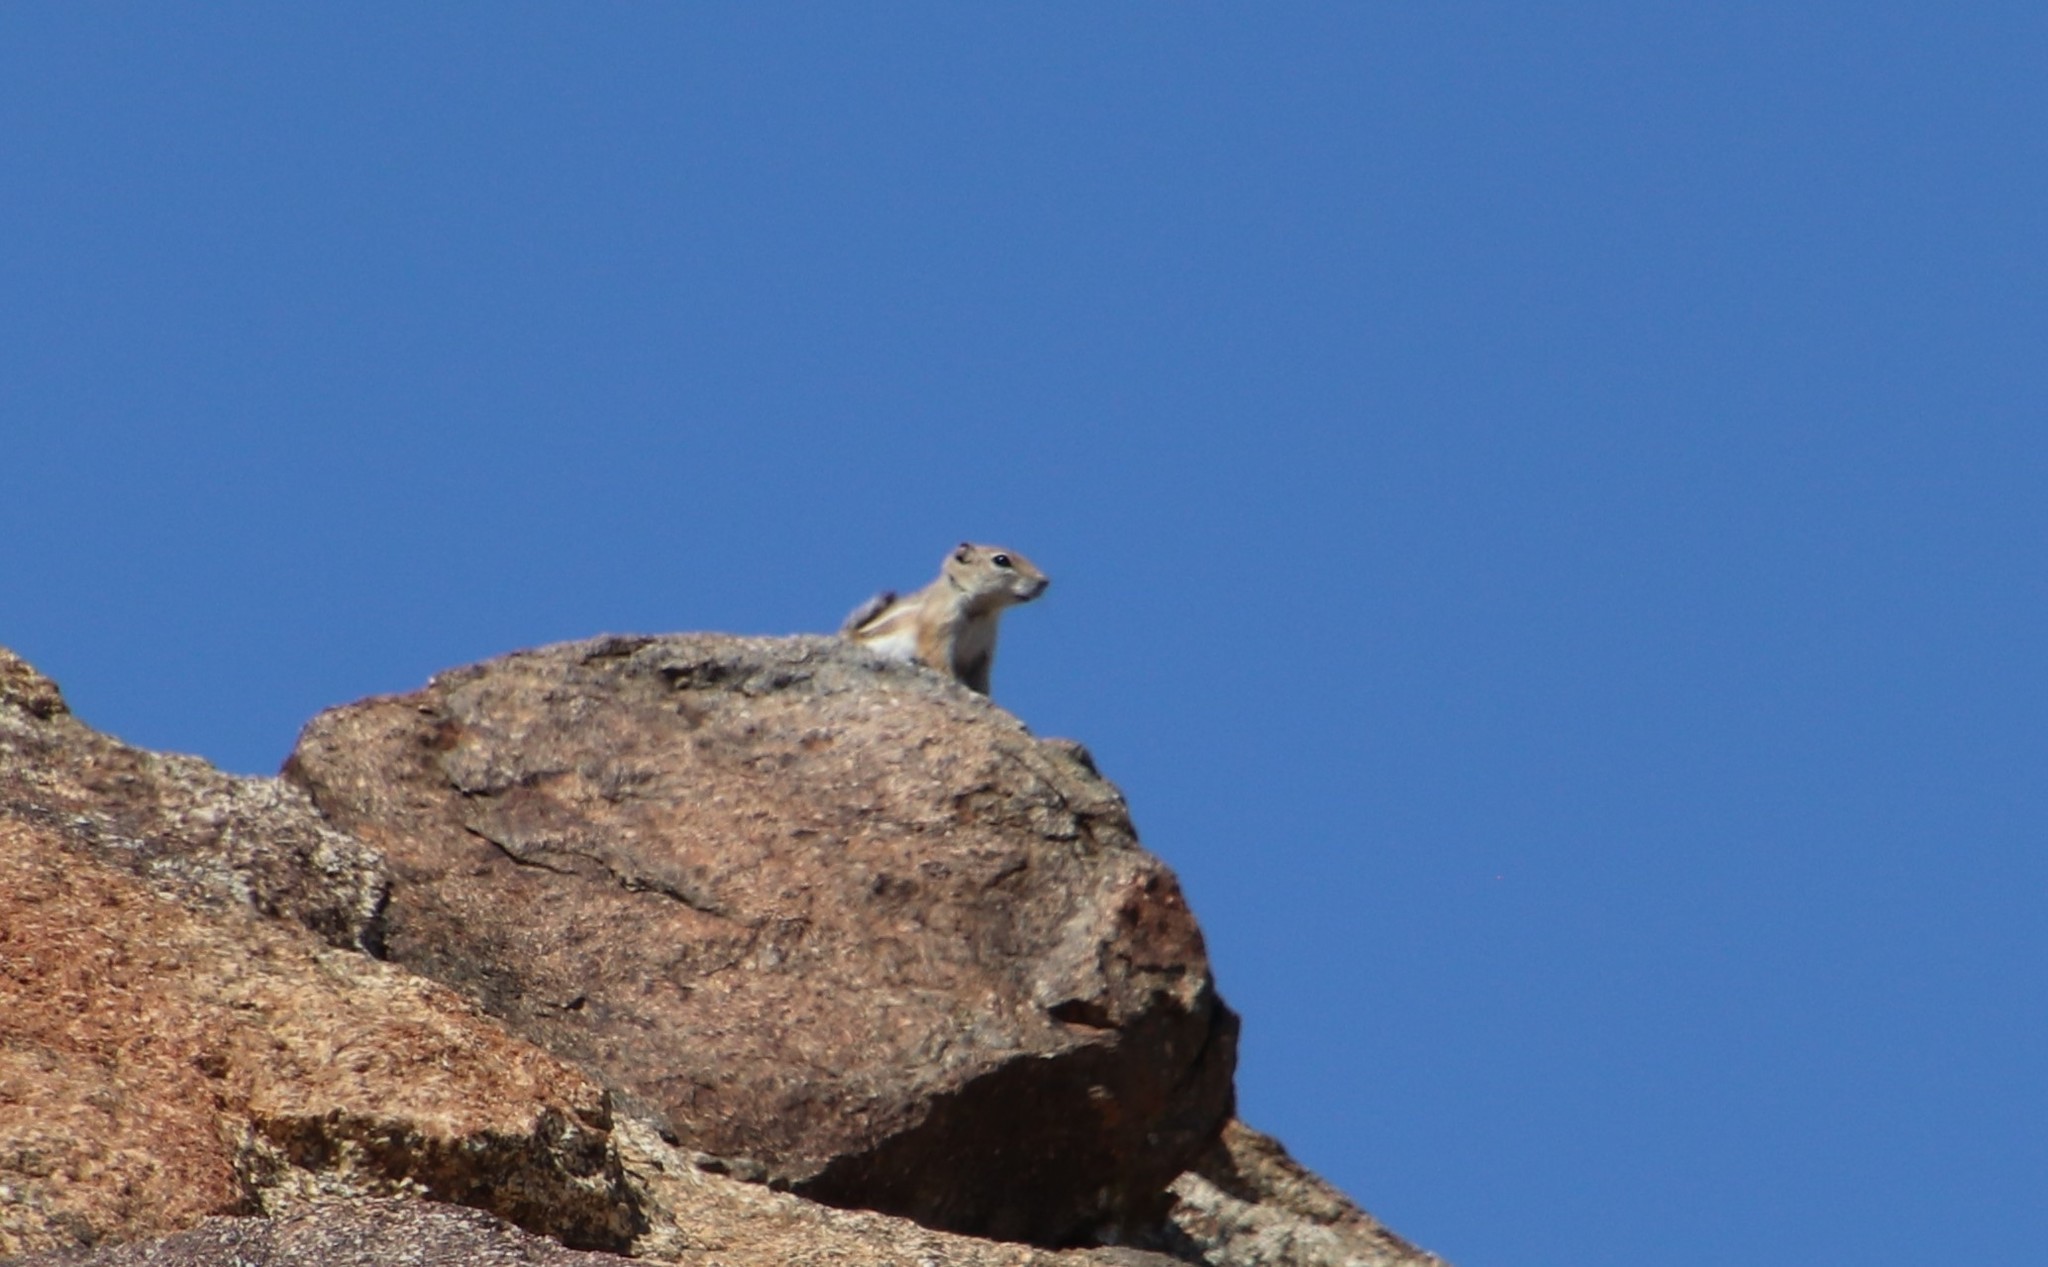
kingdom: Animalia
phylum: Chordata
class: Mammalia
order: Rodentia
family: Sciuridae
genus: Ammospermophilus
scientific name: Ammospermophilus leucurus
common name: White-tailed antelope squirrel
